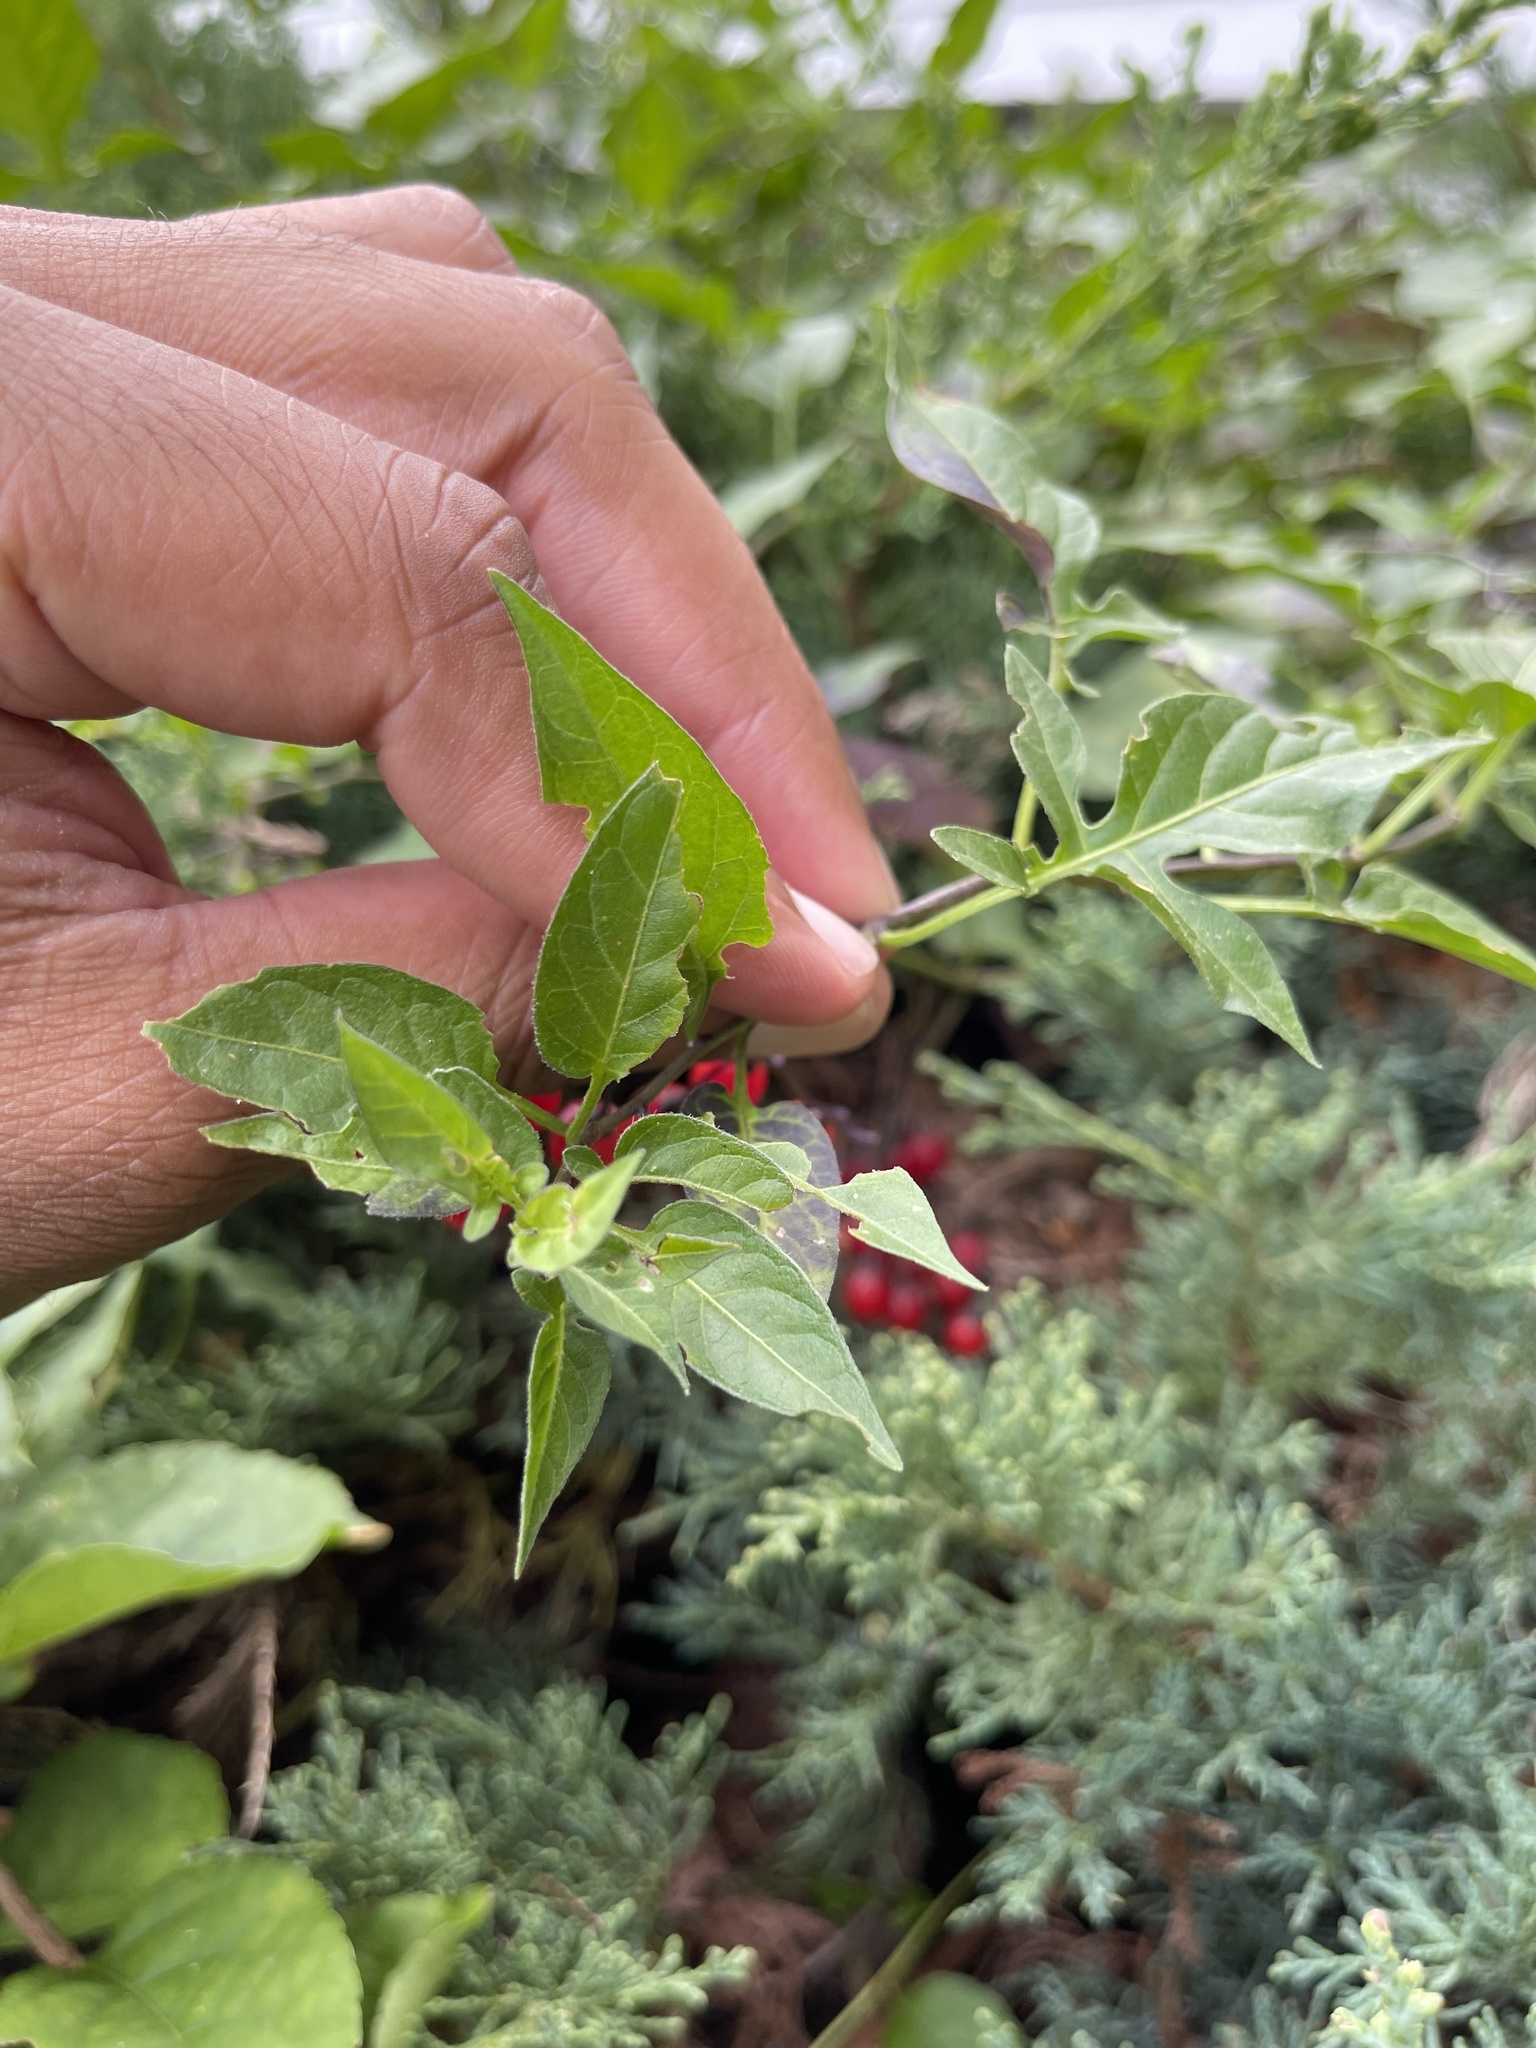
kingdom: Plantae
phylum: Tracheophyta
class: Magnoliopsida
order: Solanales
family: Solanaceae
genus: Solanum
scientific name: Solanum dulcamara
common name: Climbing nightshade
